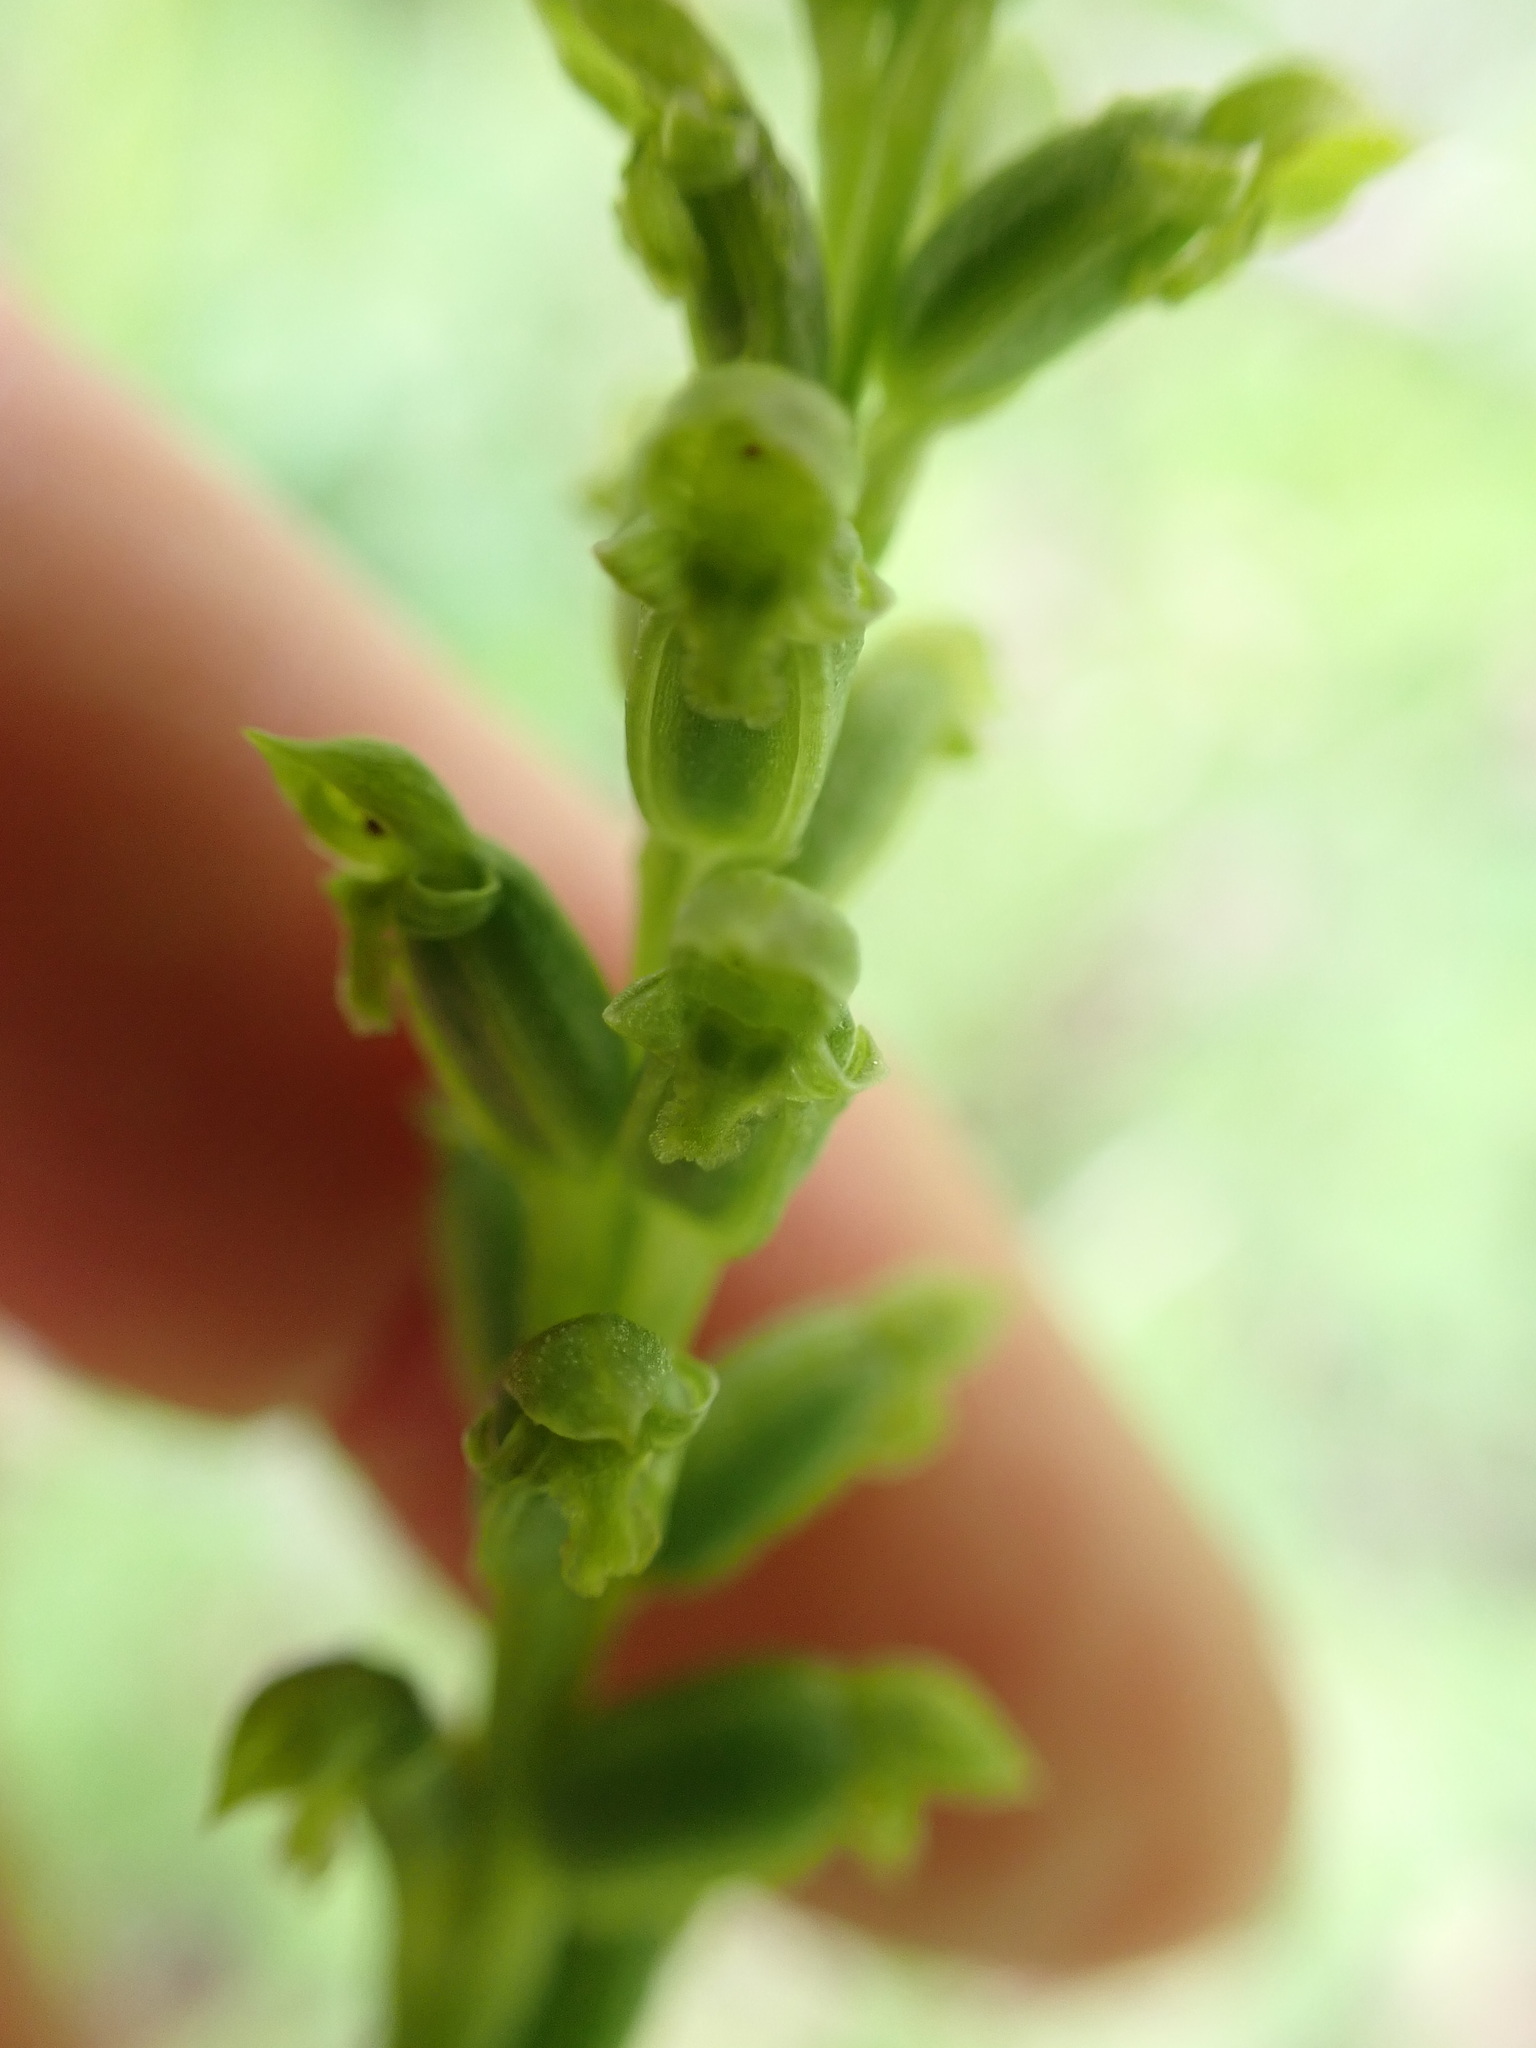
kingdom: Plantae
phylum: Tracheophyta
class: Liliopsida
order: Asparagales
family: Orchidaceae
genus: Microtis
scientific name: Microtis unifolia
